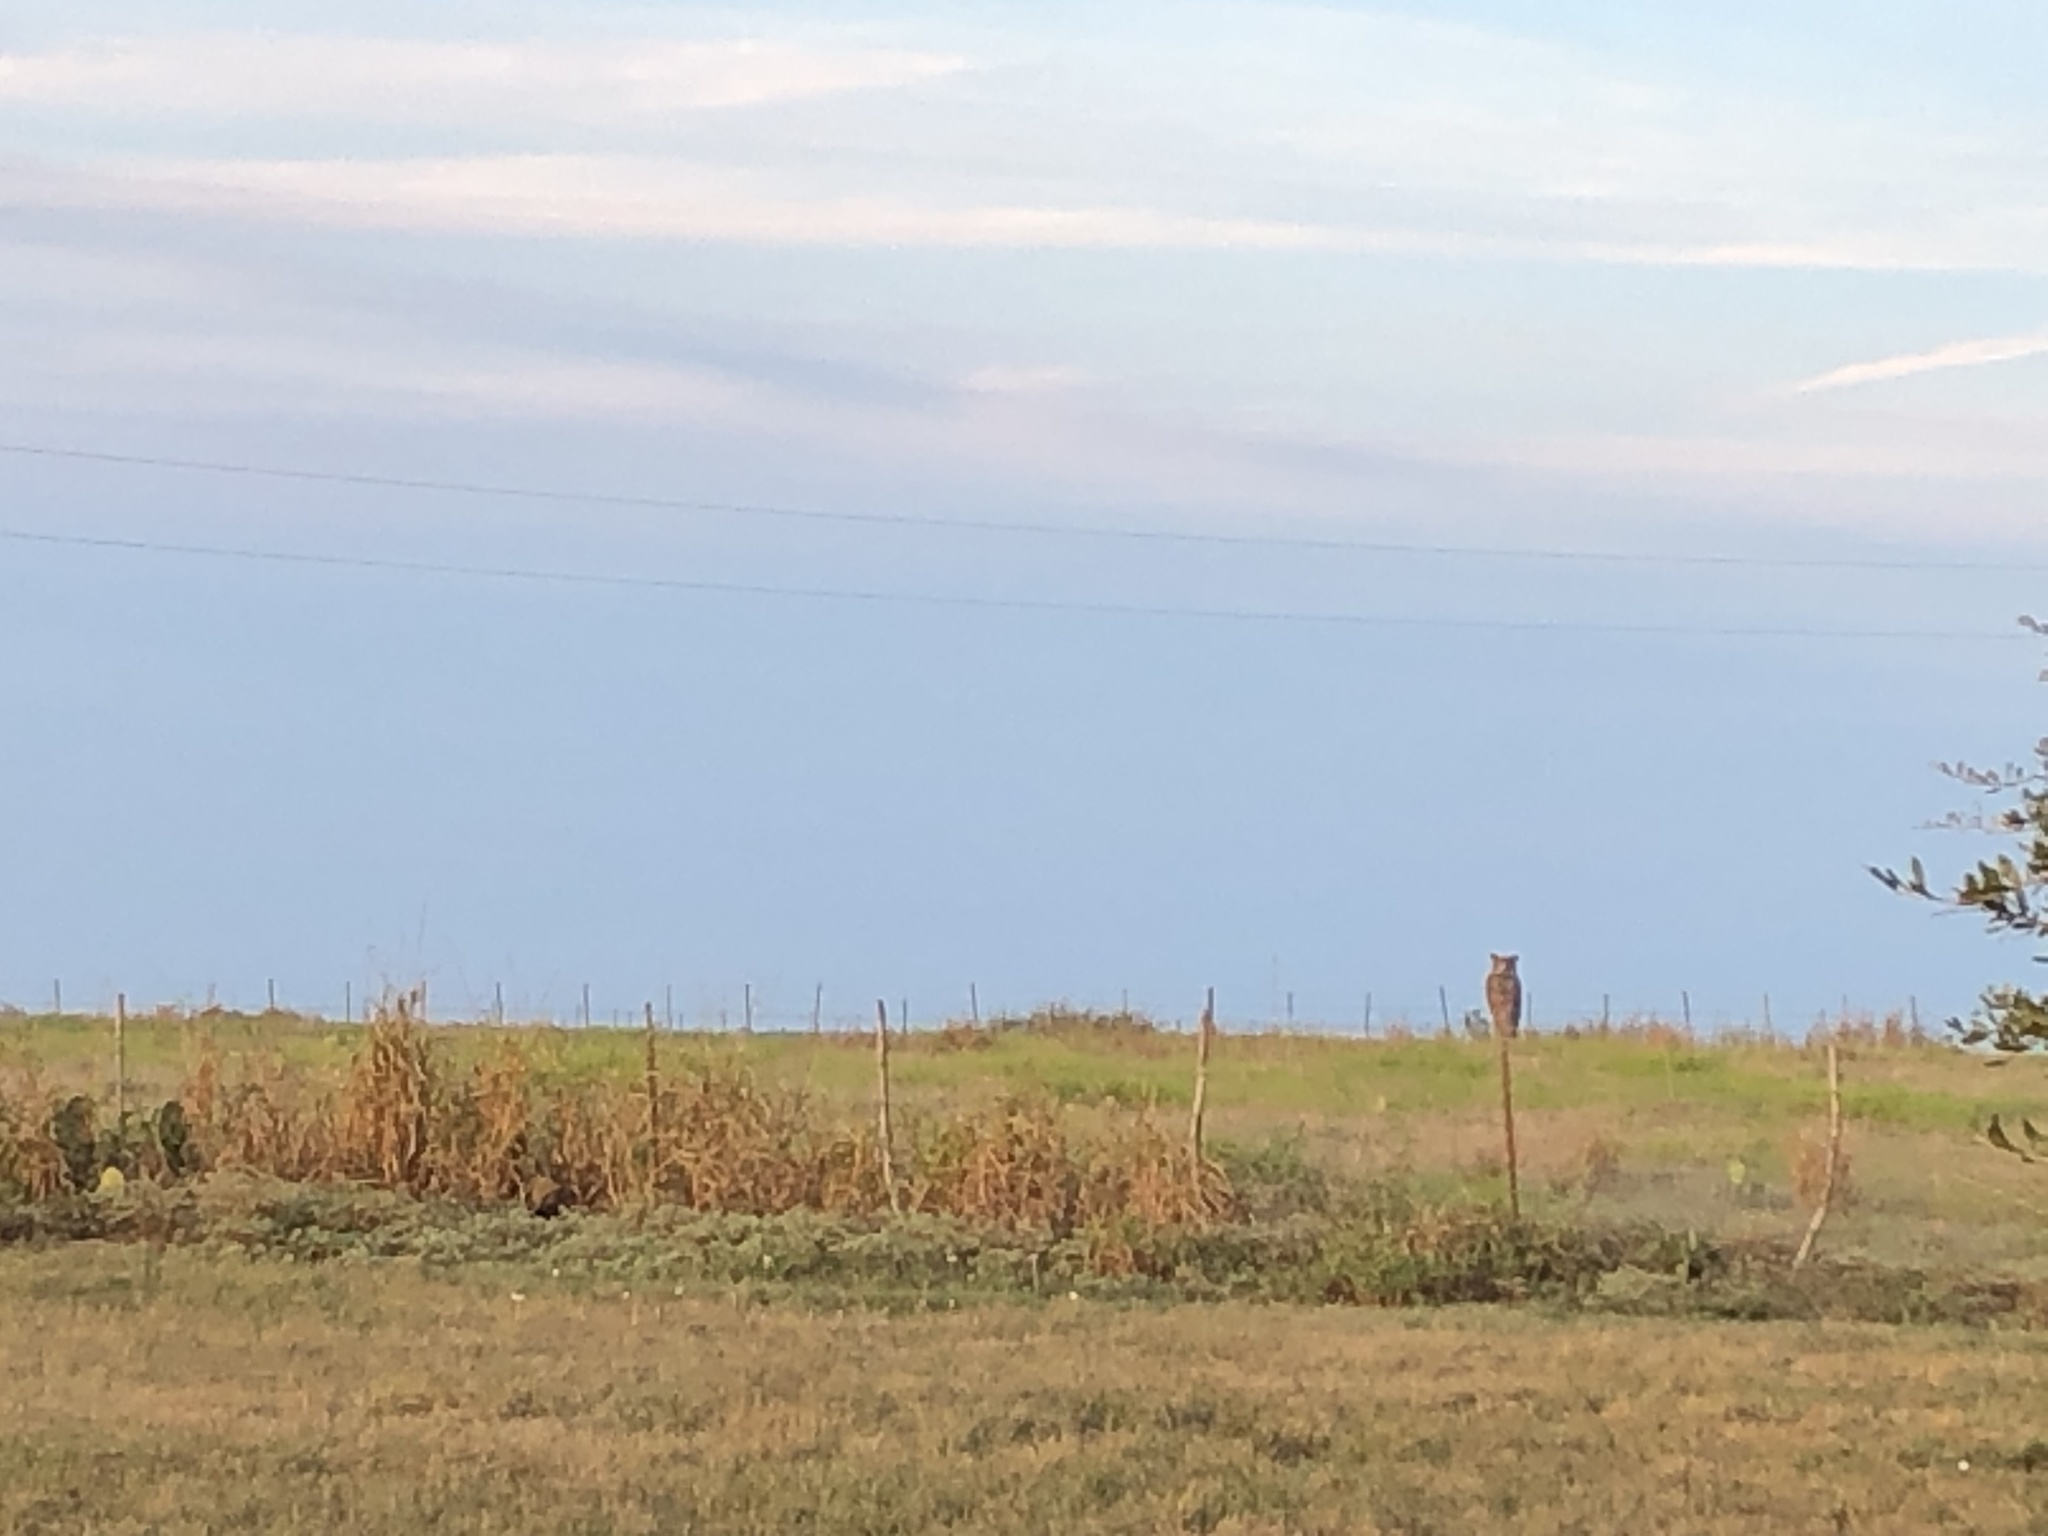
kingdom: Animalia
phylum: Chordata
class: Aves
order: Strigiformes
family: Strigidae
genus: Bubo
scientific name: Bubo virginianus
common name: Great horned owl
